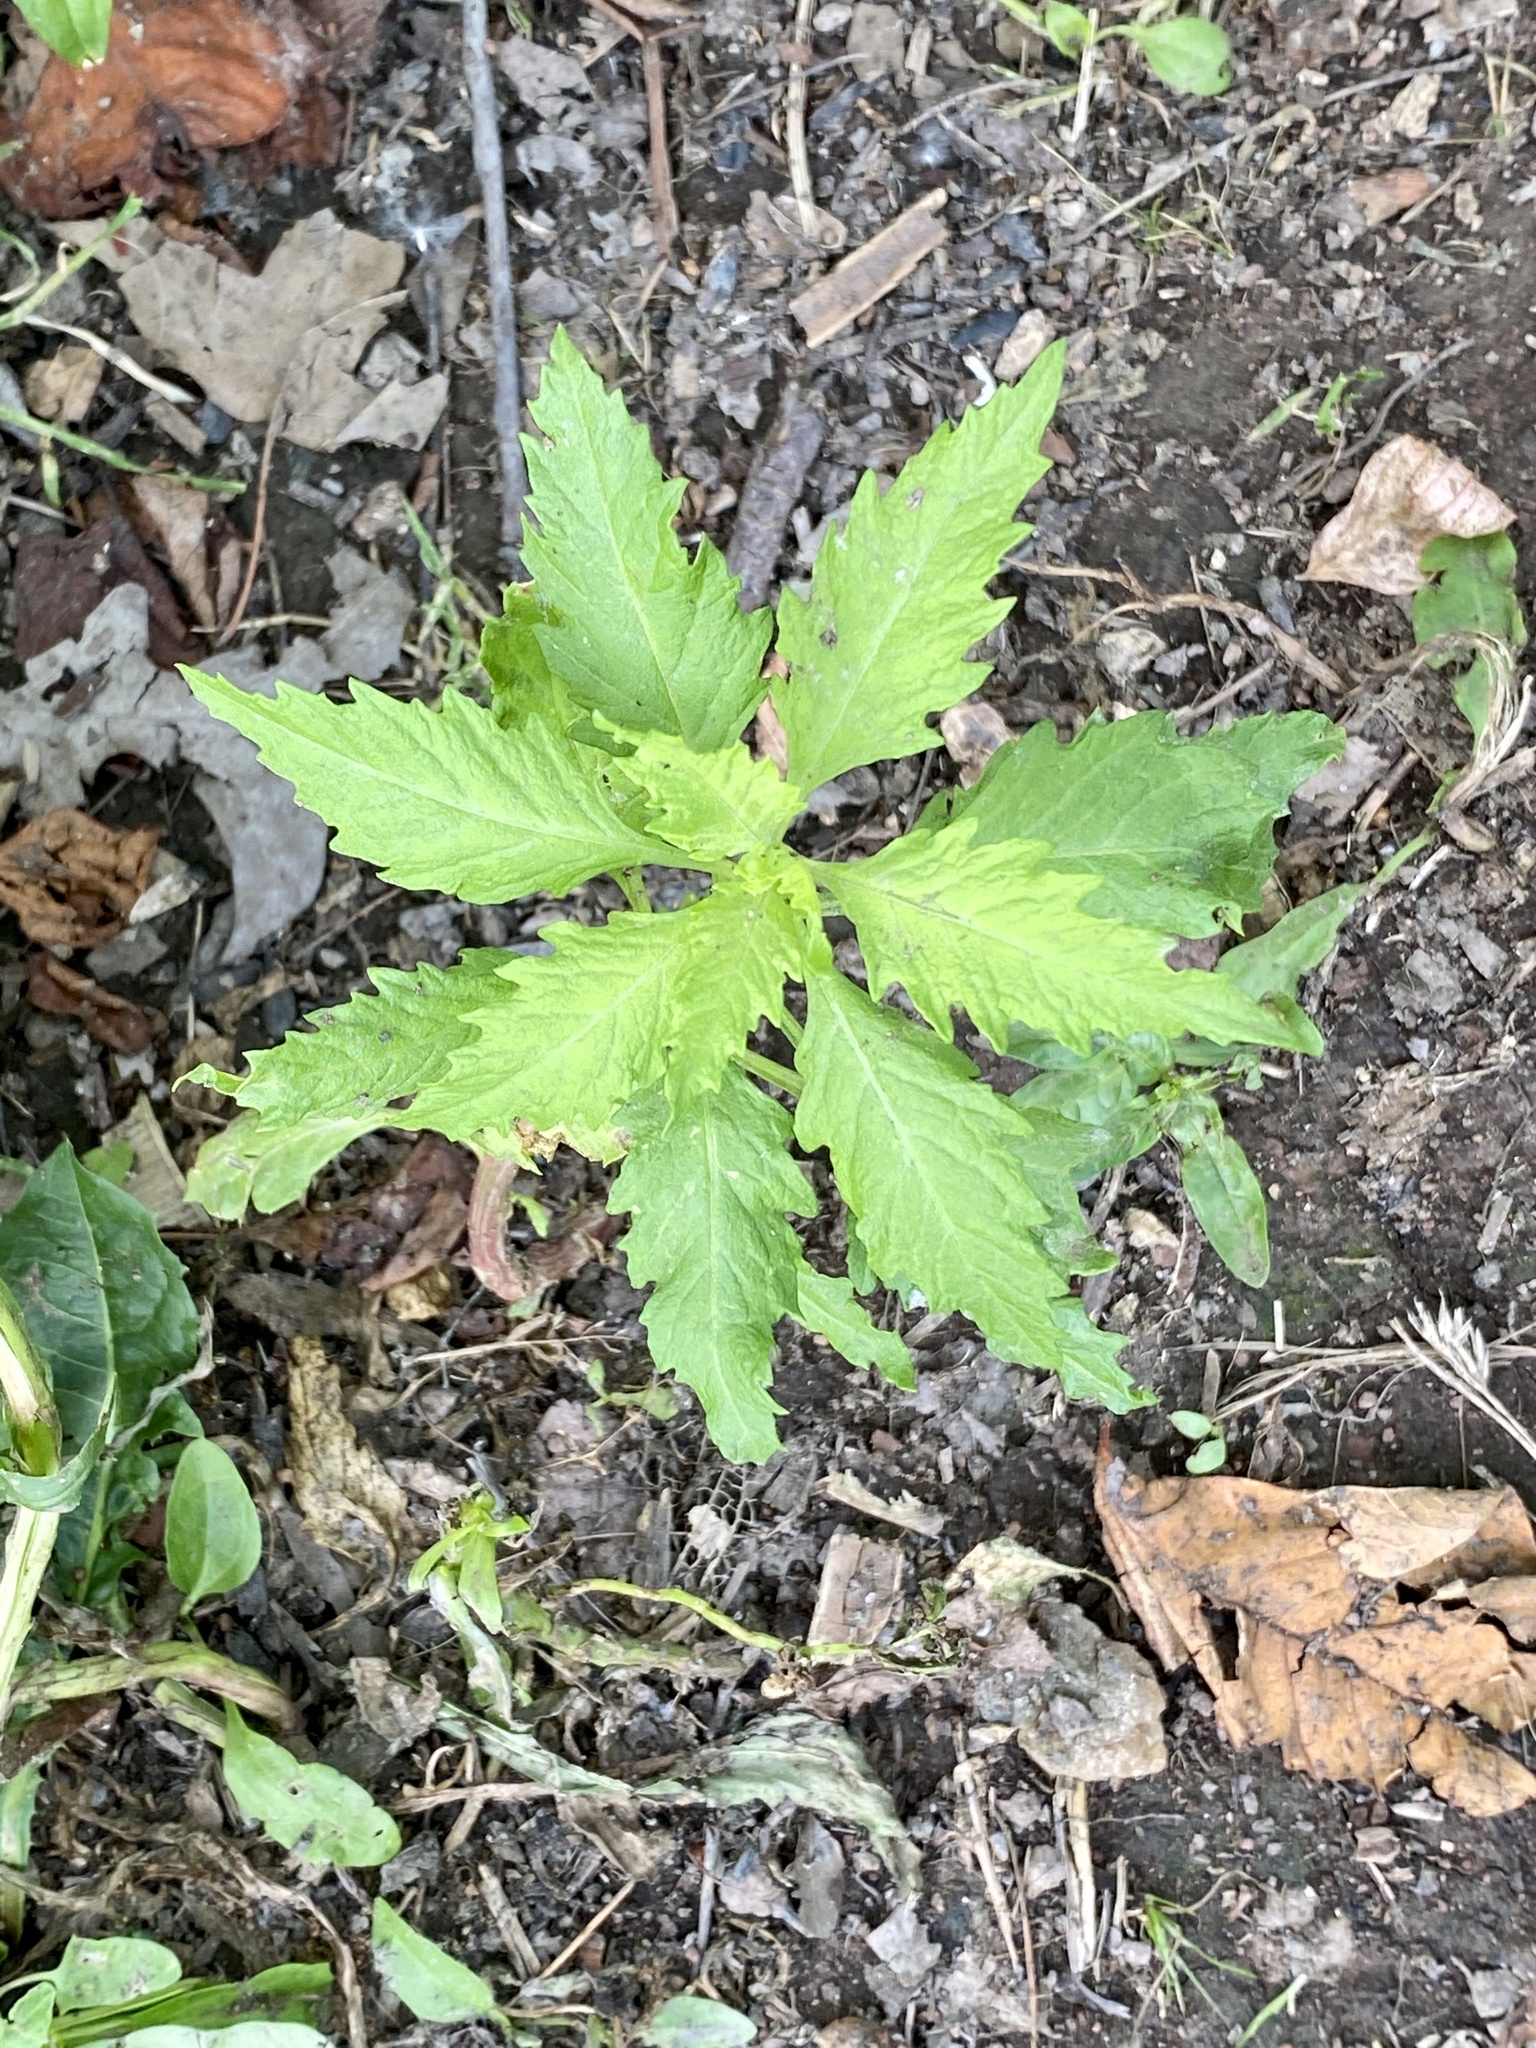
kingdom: Plantae
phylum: Tracheophyta
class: Magnoliopsida
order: Caryophyllales
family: Amaranthaceae
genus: Dysphania
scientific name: Dysphania ambrosioides
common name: Wormseed
